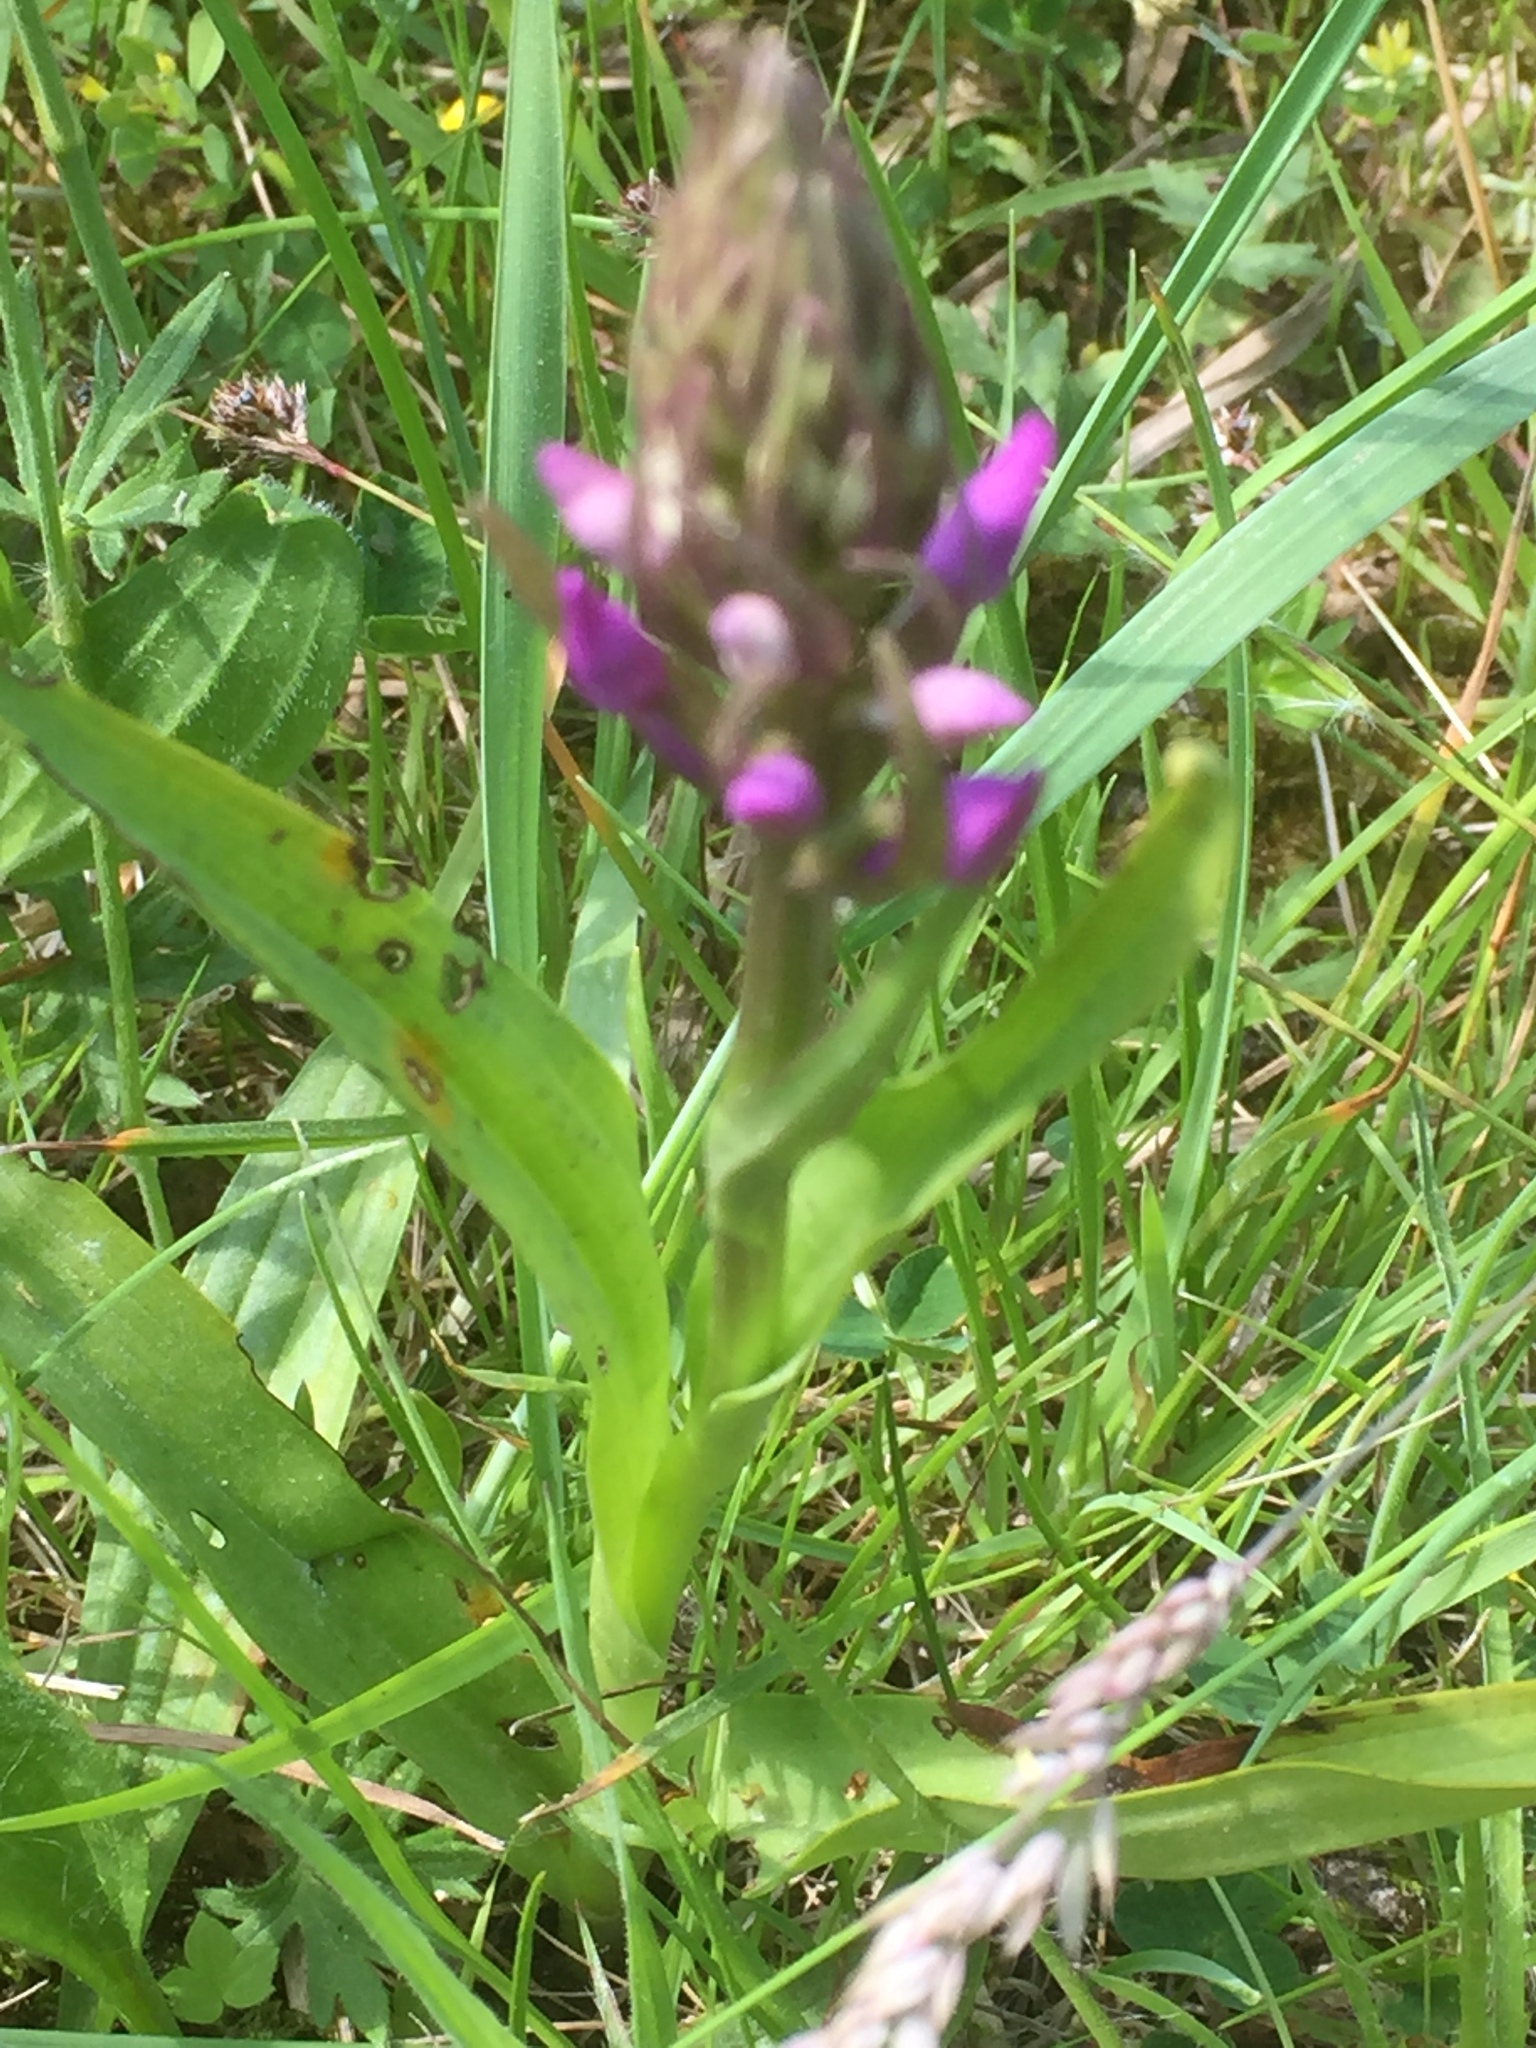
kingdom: Plantae
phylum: Tracheophyta
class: Liliopsida
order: Asparagales
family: Orchidaceae
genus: Dactylorhiza
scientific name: Dactylorhiza majalis
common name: Marsh orchid
